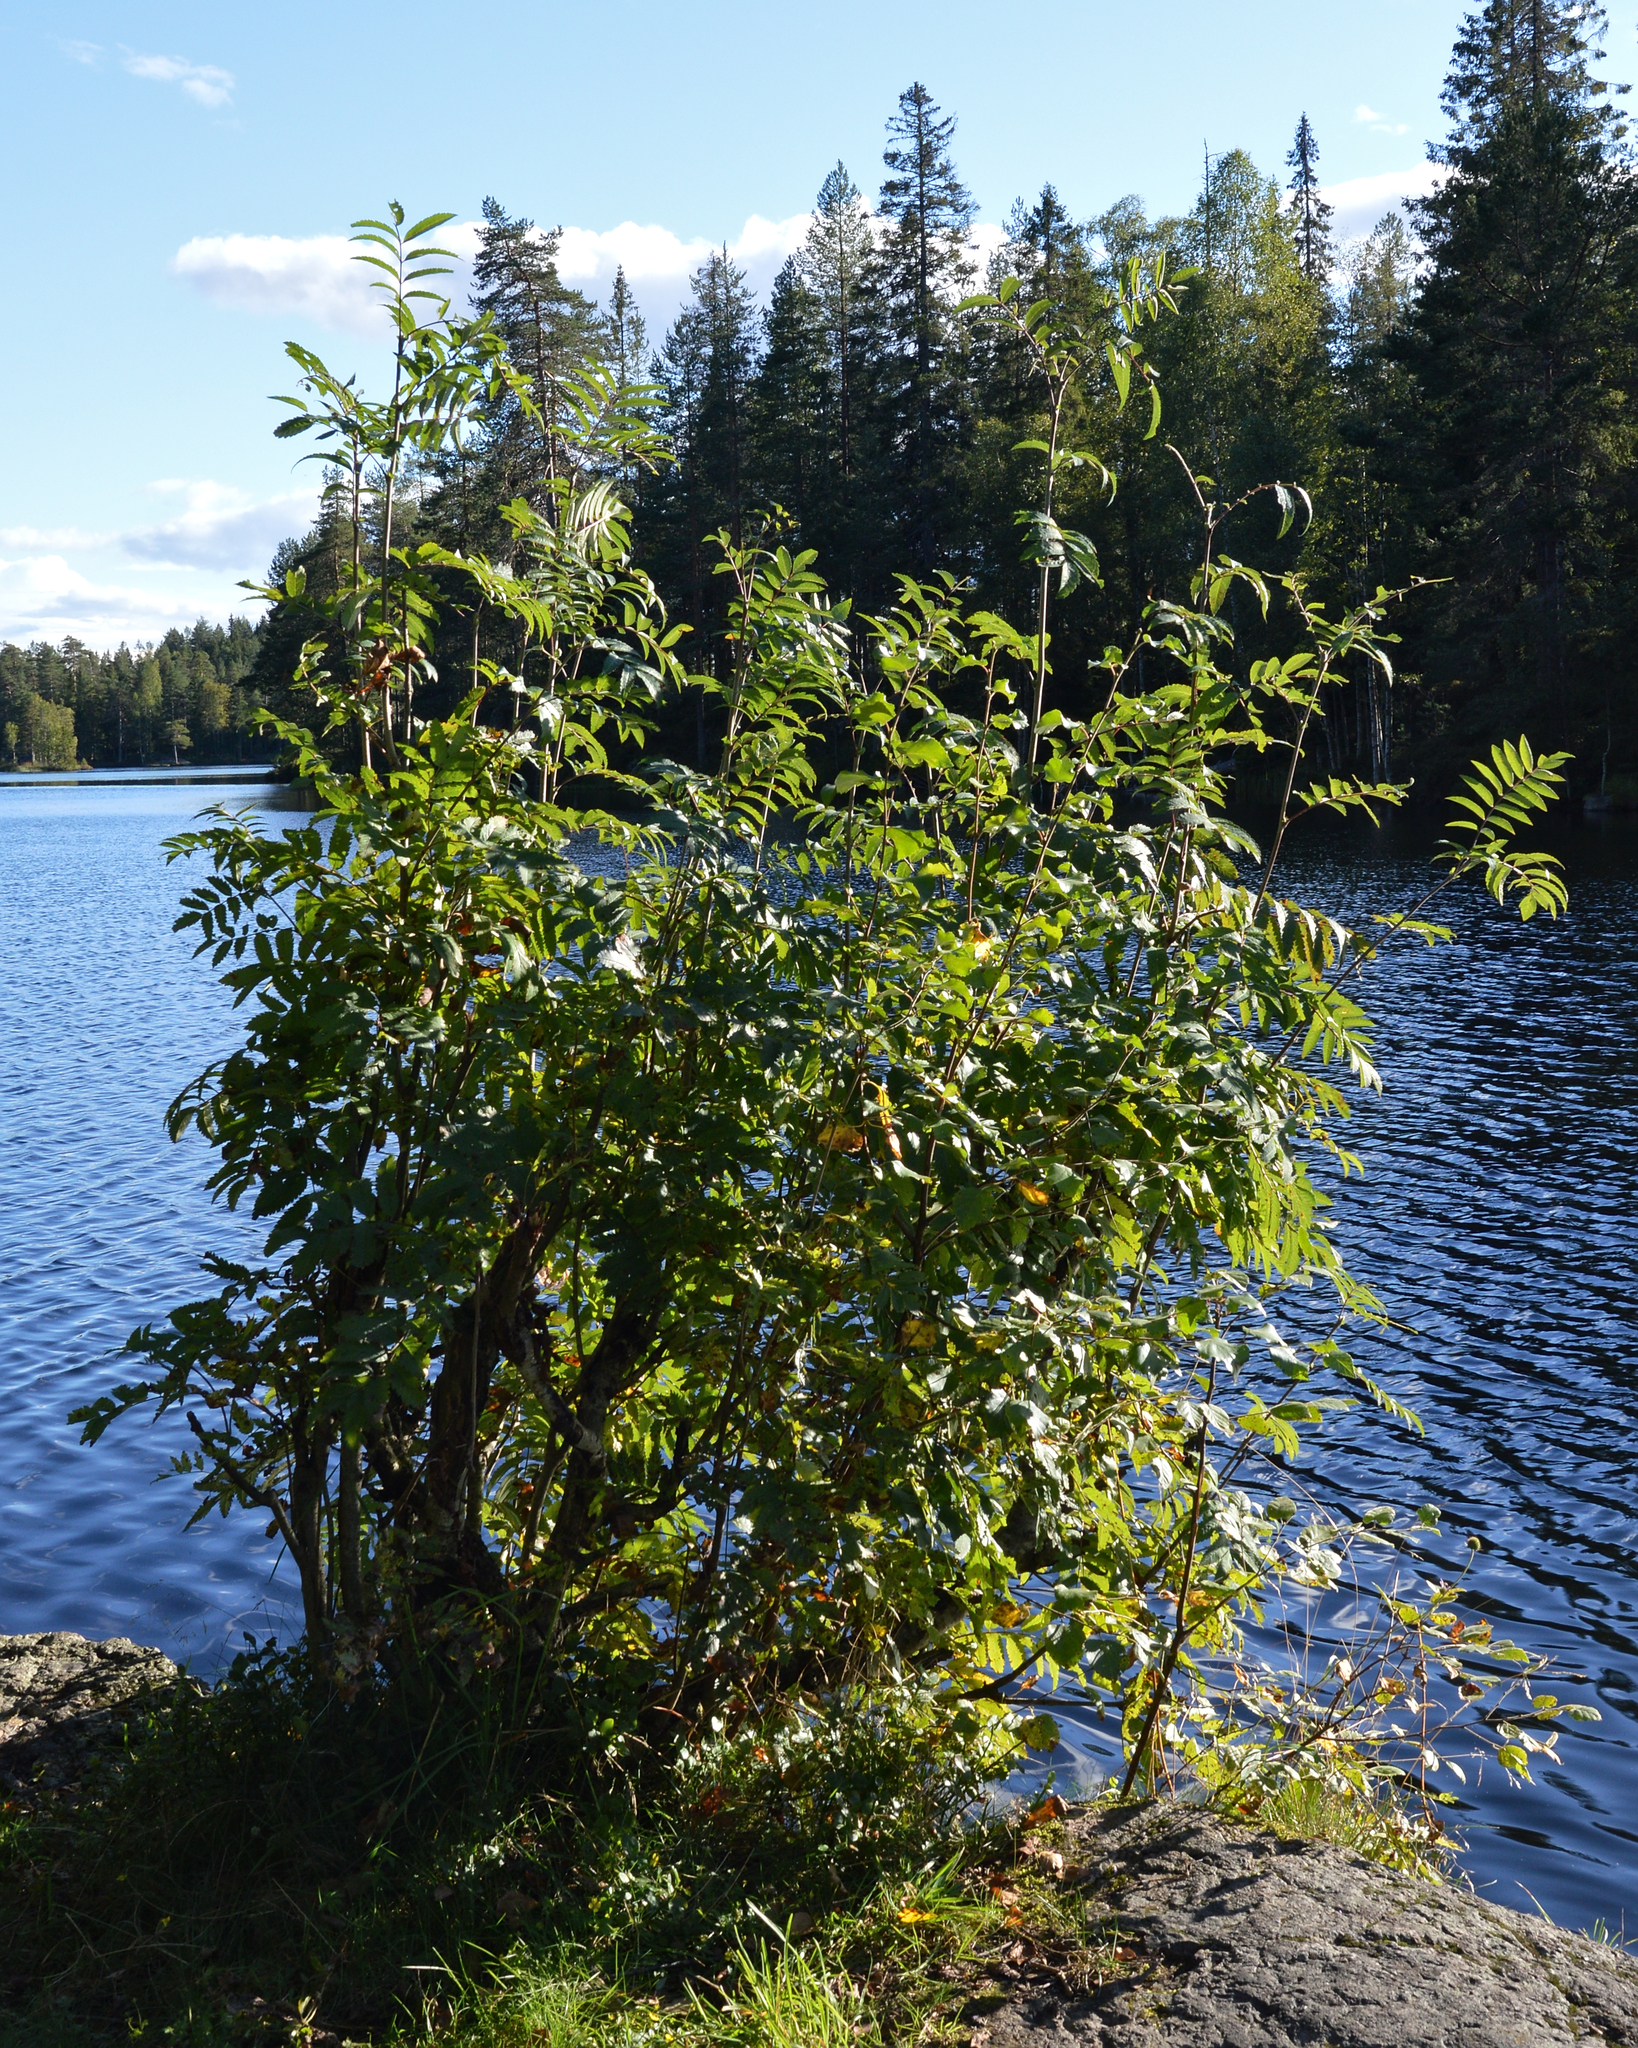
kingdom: Plantae
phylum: Tracheophyta
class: Magnoliopsida
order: Rosales
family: Rosaceae
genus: Sorbus
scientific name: Sorbus aucuparia
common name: Rowan
